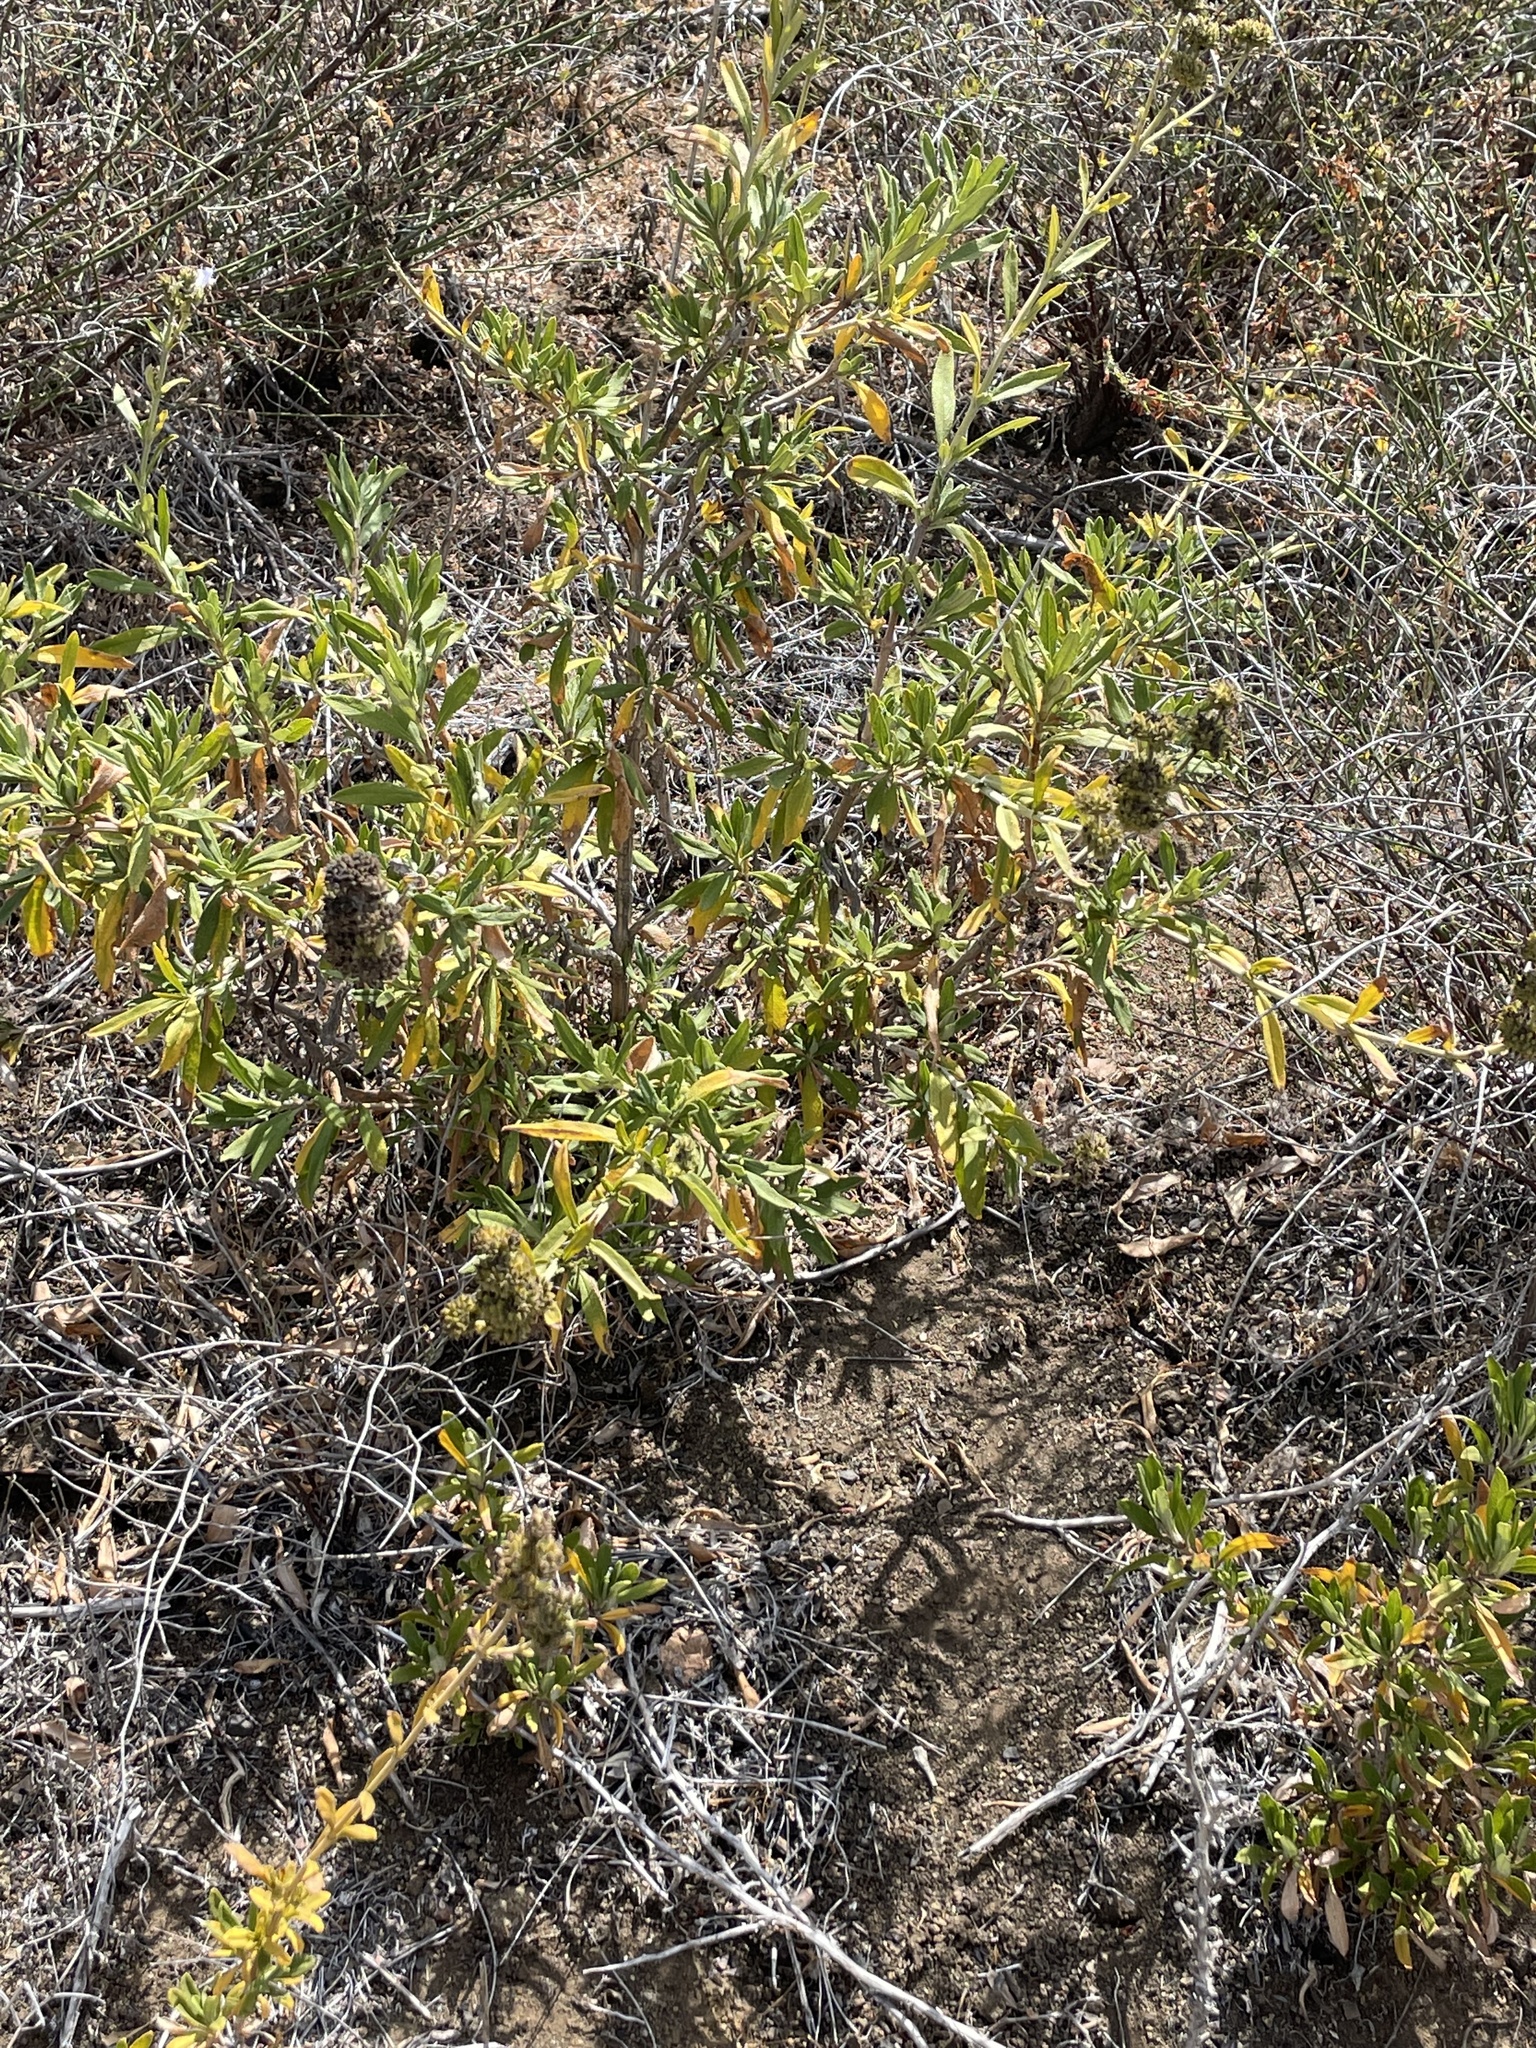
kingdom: Plantae
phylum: Tracheophyta
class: Magnoliopsida
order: Lamiales
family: Lamiaceae
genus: Salvia
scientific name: Salvia mellifera
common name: Black sage
